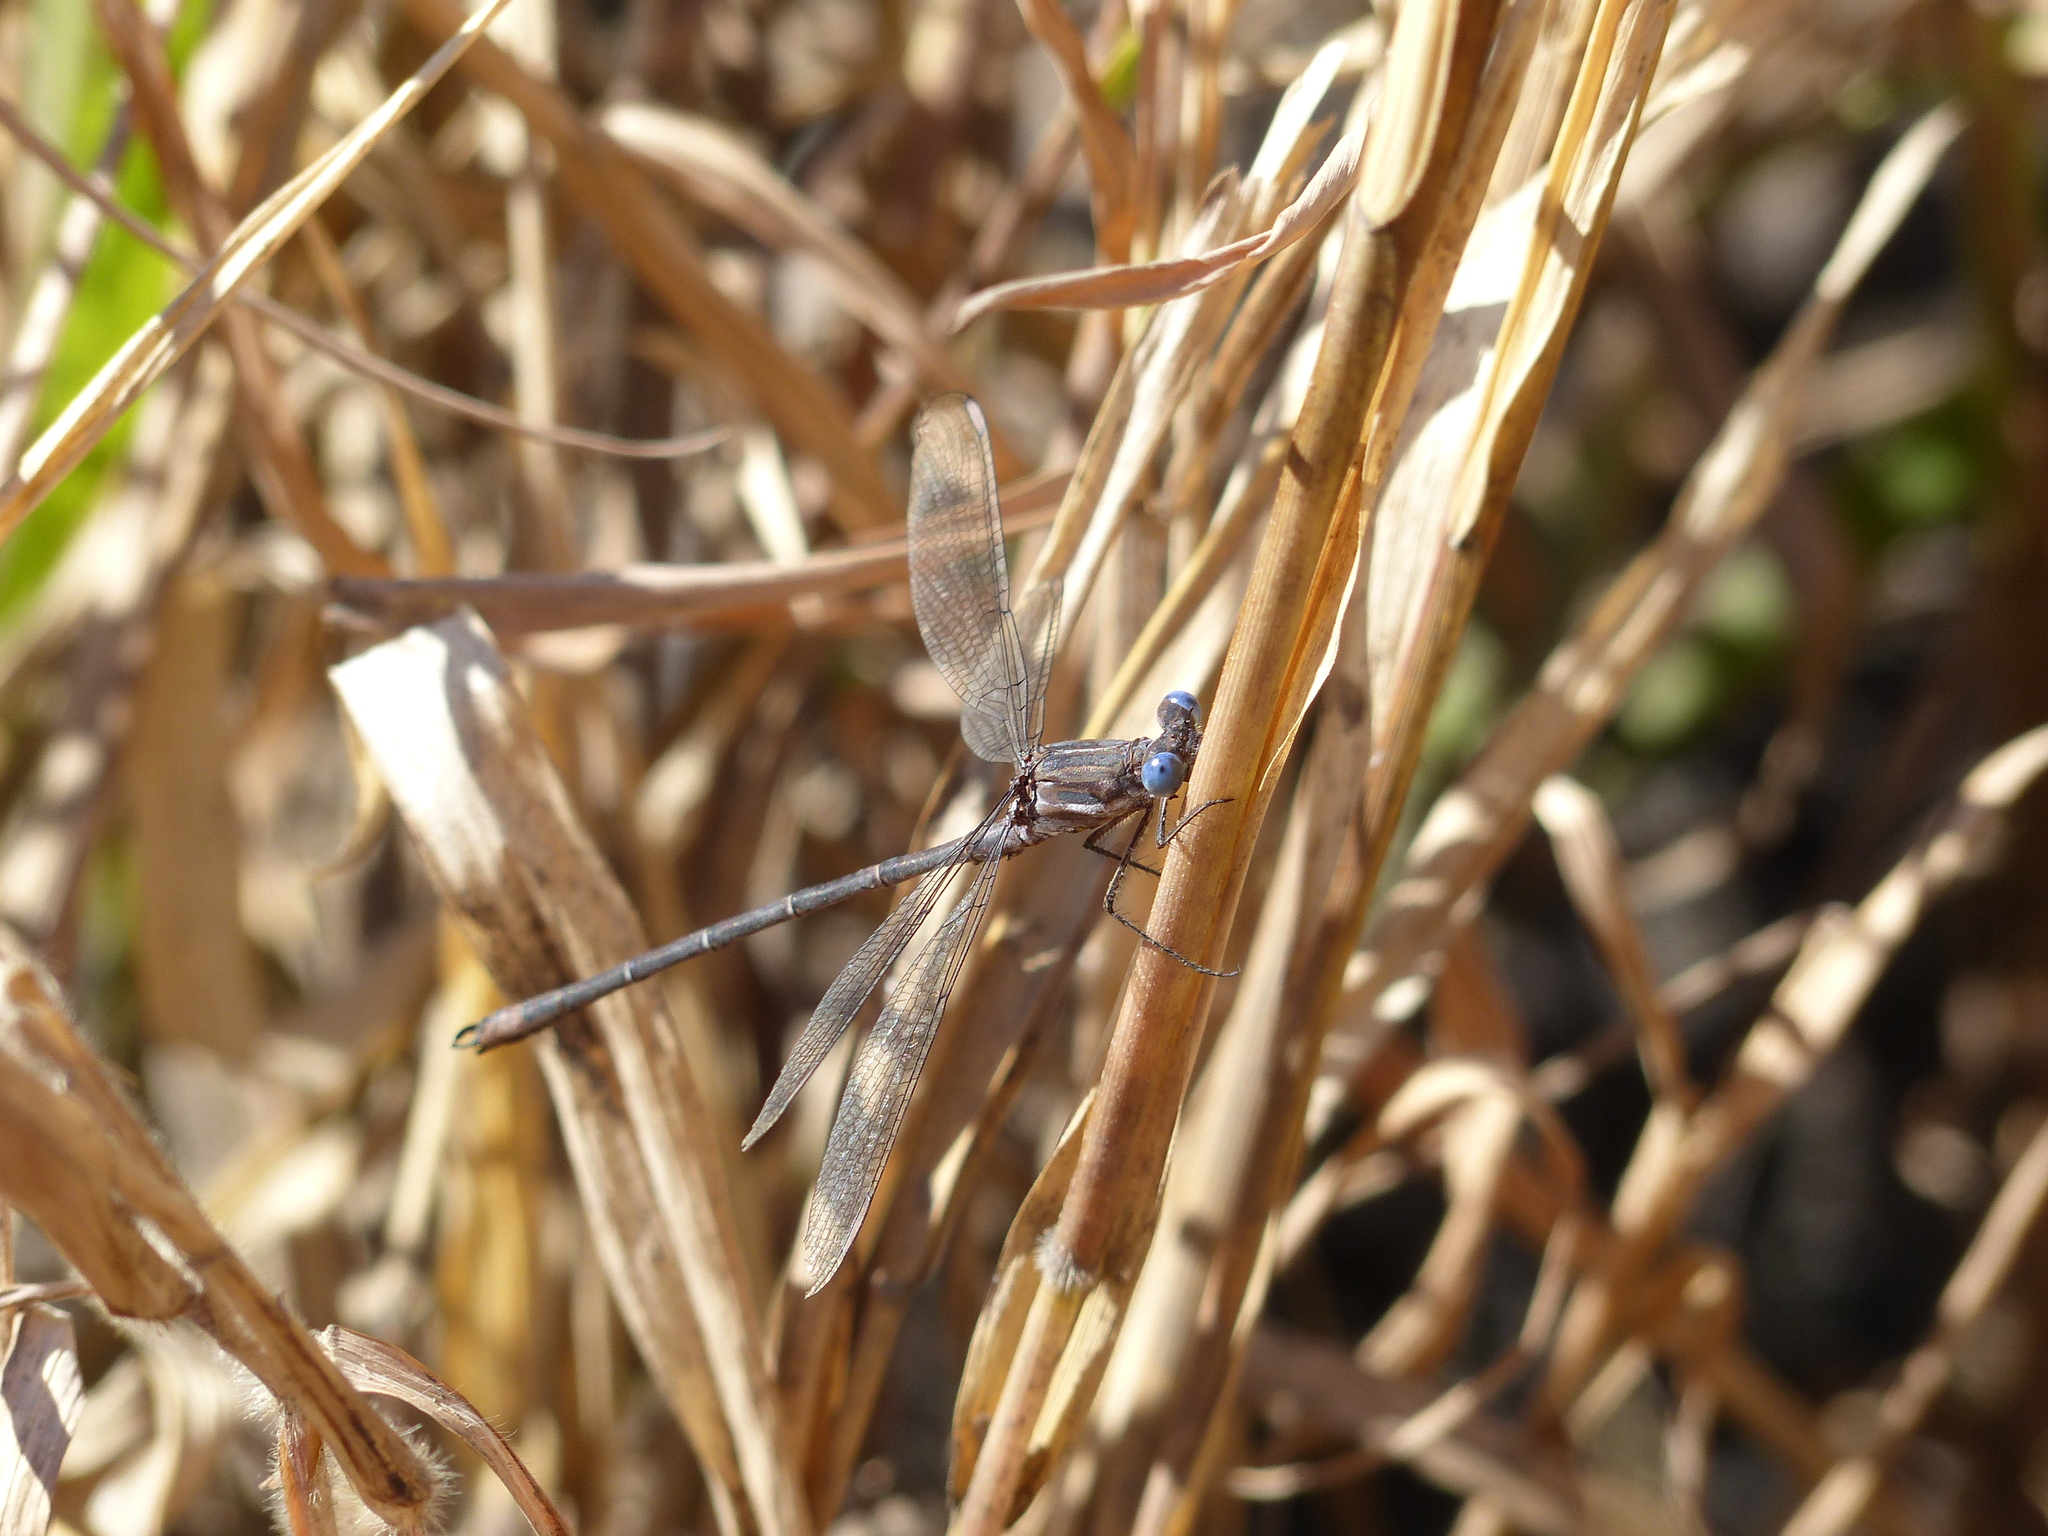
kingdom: Animalia
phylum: Arthropoda
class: Insecta
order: Odonata
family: Lestidae
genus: Archilestes
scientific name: Archilestes californicus
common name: California spreadwing
